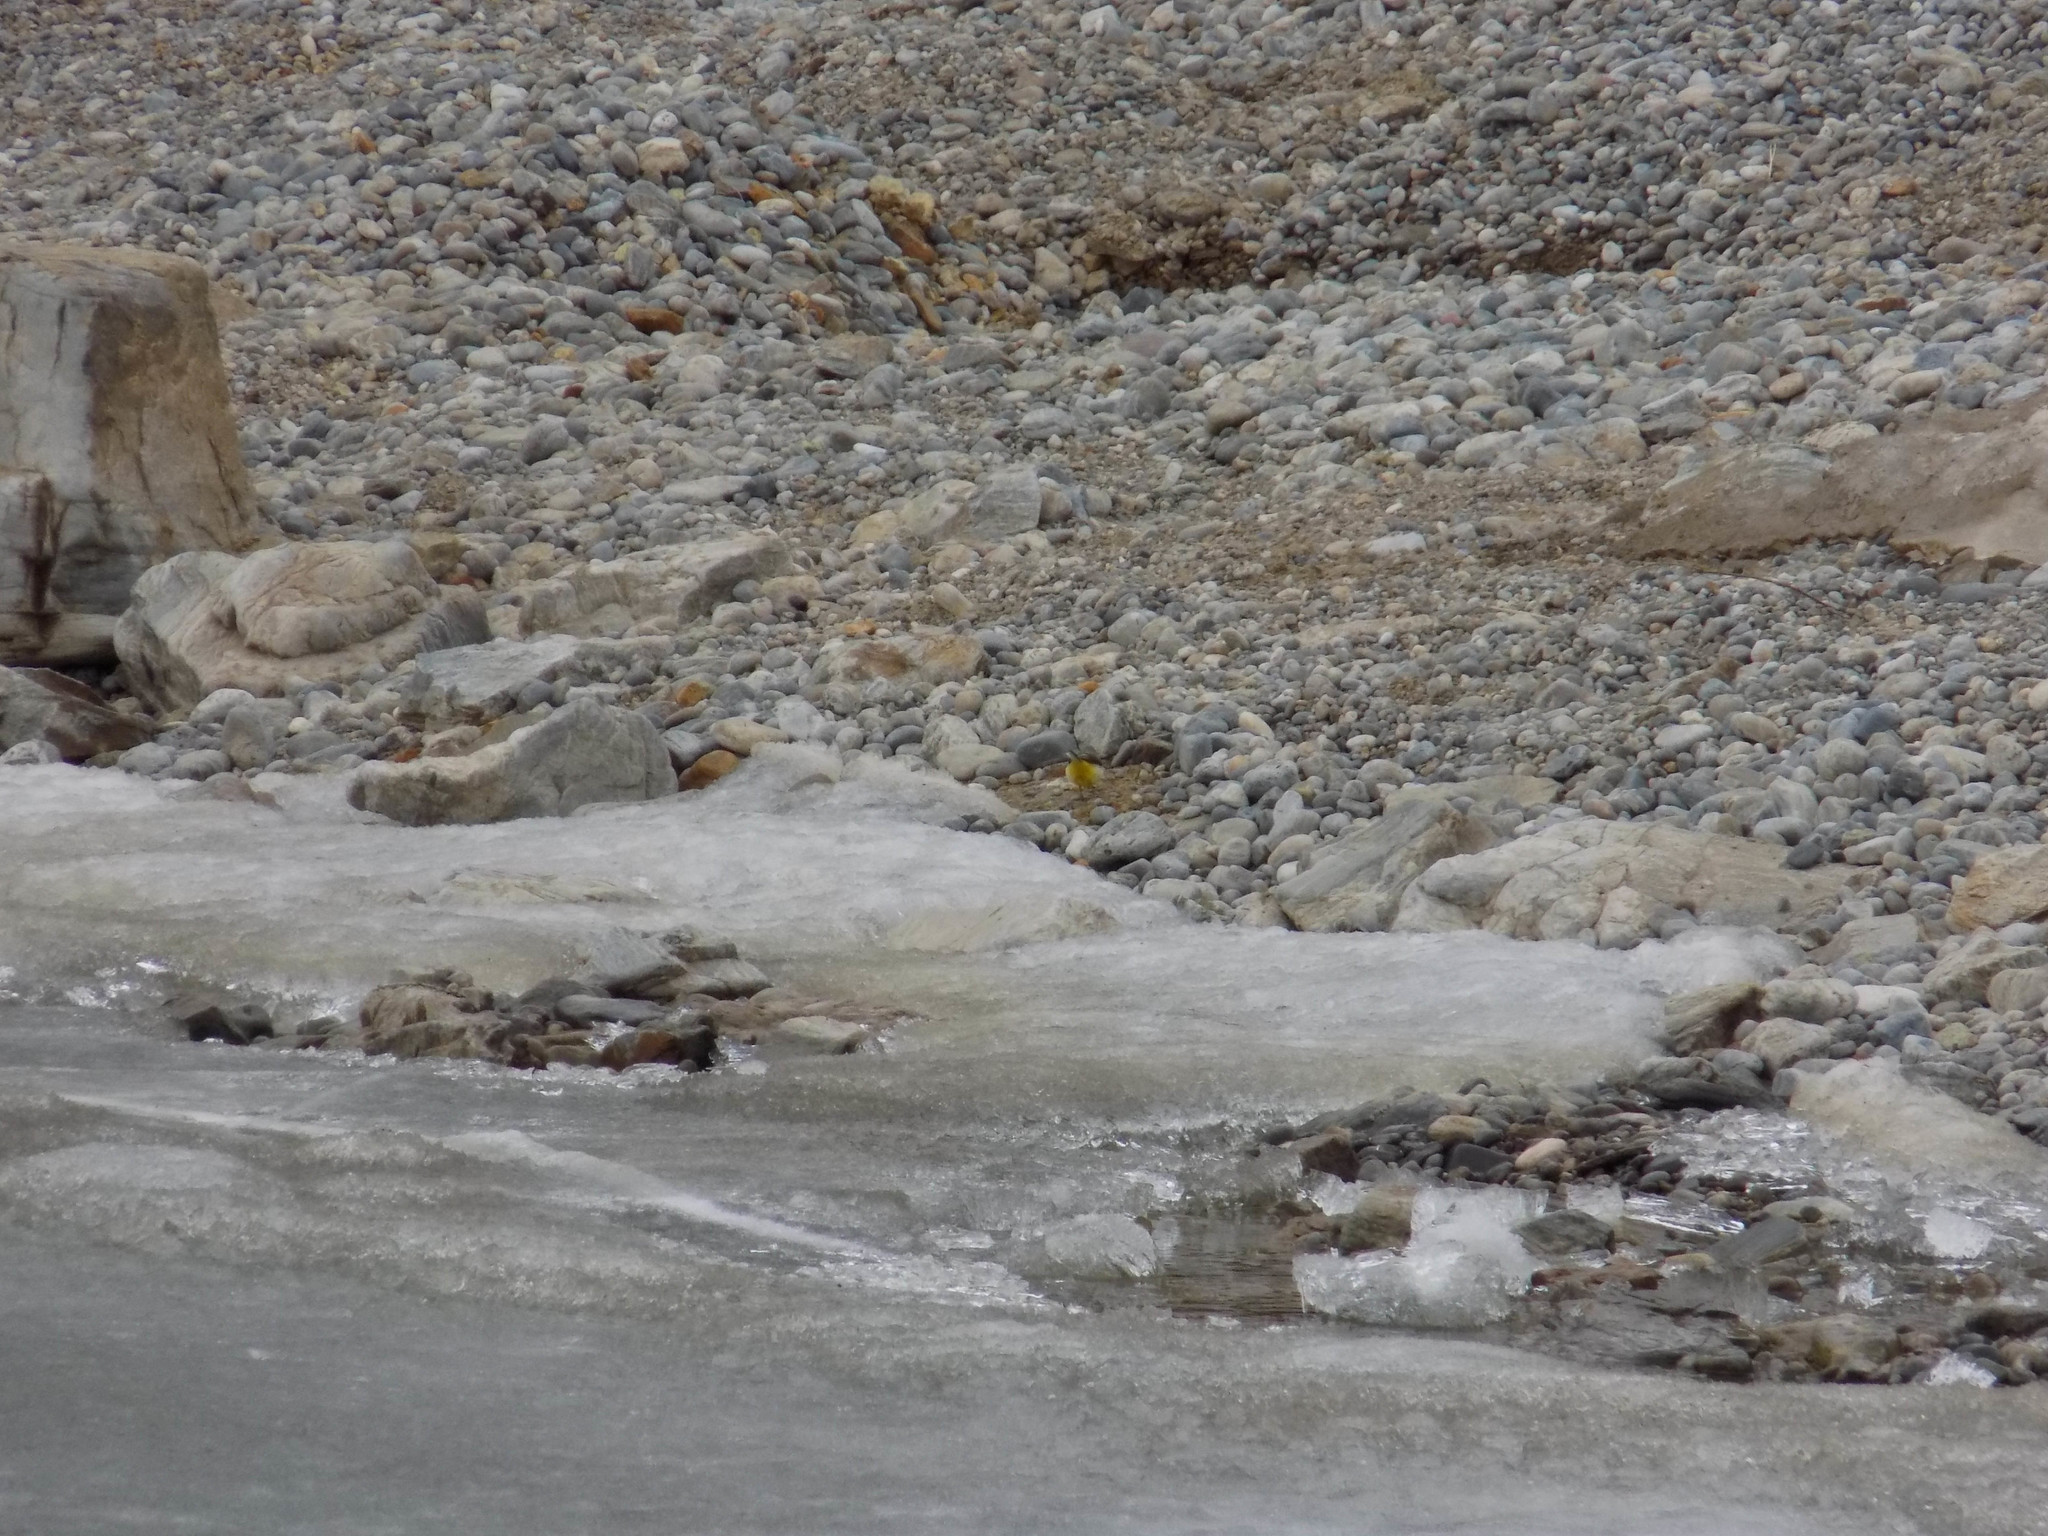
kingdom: Animalia
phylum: Chordata
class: Aves
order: Passeriformes
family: Motacillidae
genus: Motacilla
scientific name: Motacilla cinerea
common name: Grey wagtail
